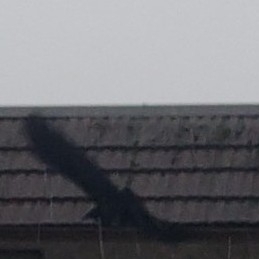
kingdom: Animalia
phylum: Chordata
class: Aves
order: Passeriformes
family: Corvidae
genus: Corvus
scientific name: Corvus brachyrhynchos
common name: American crow
